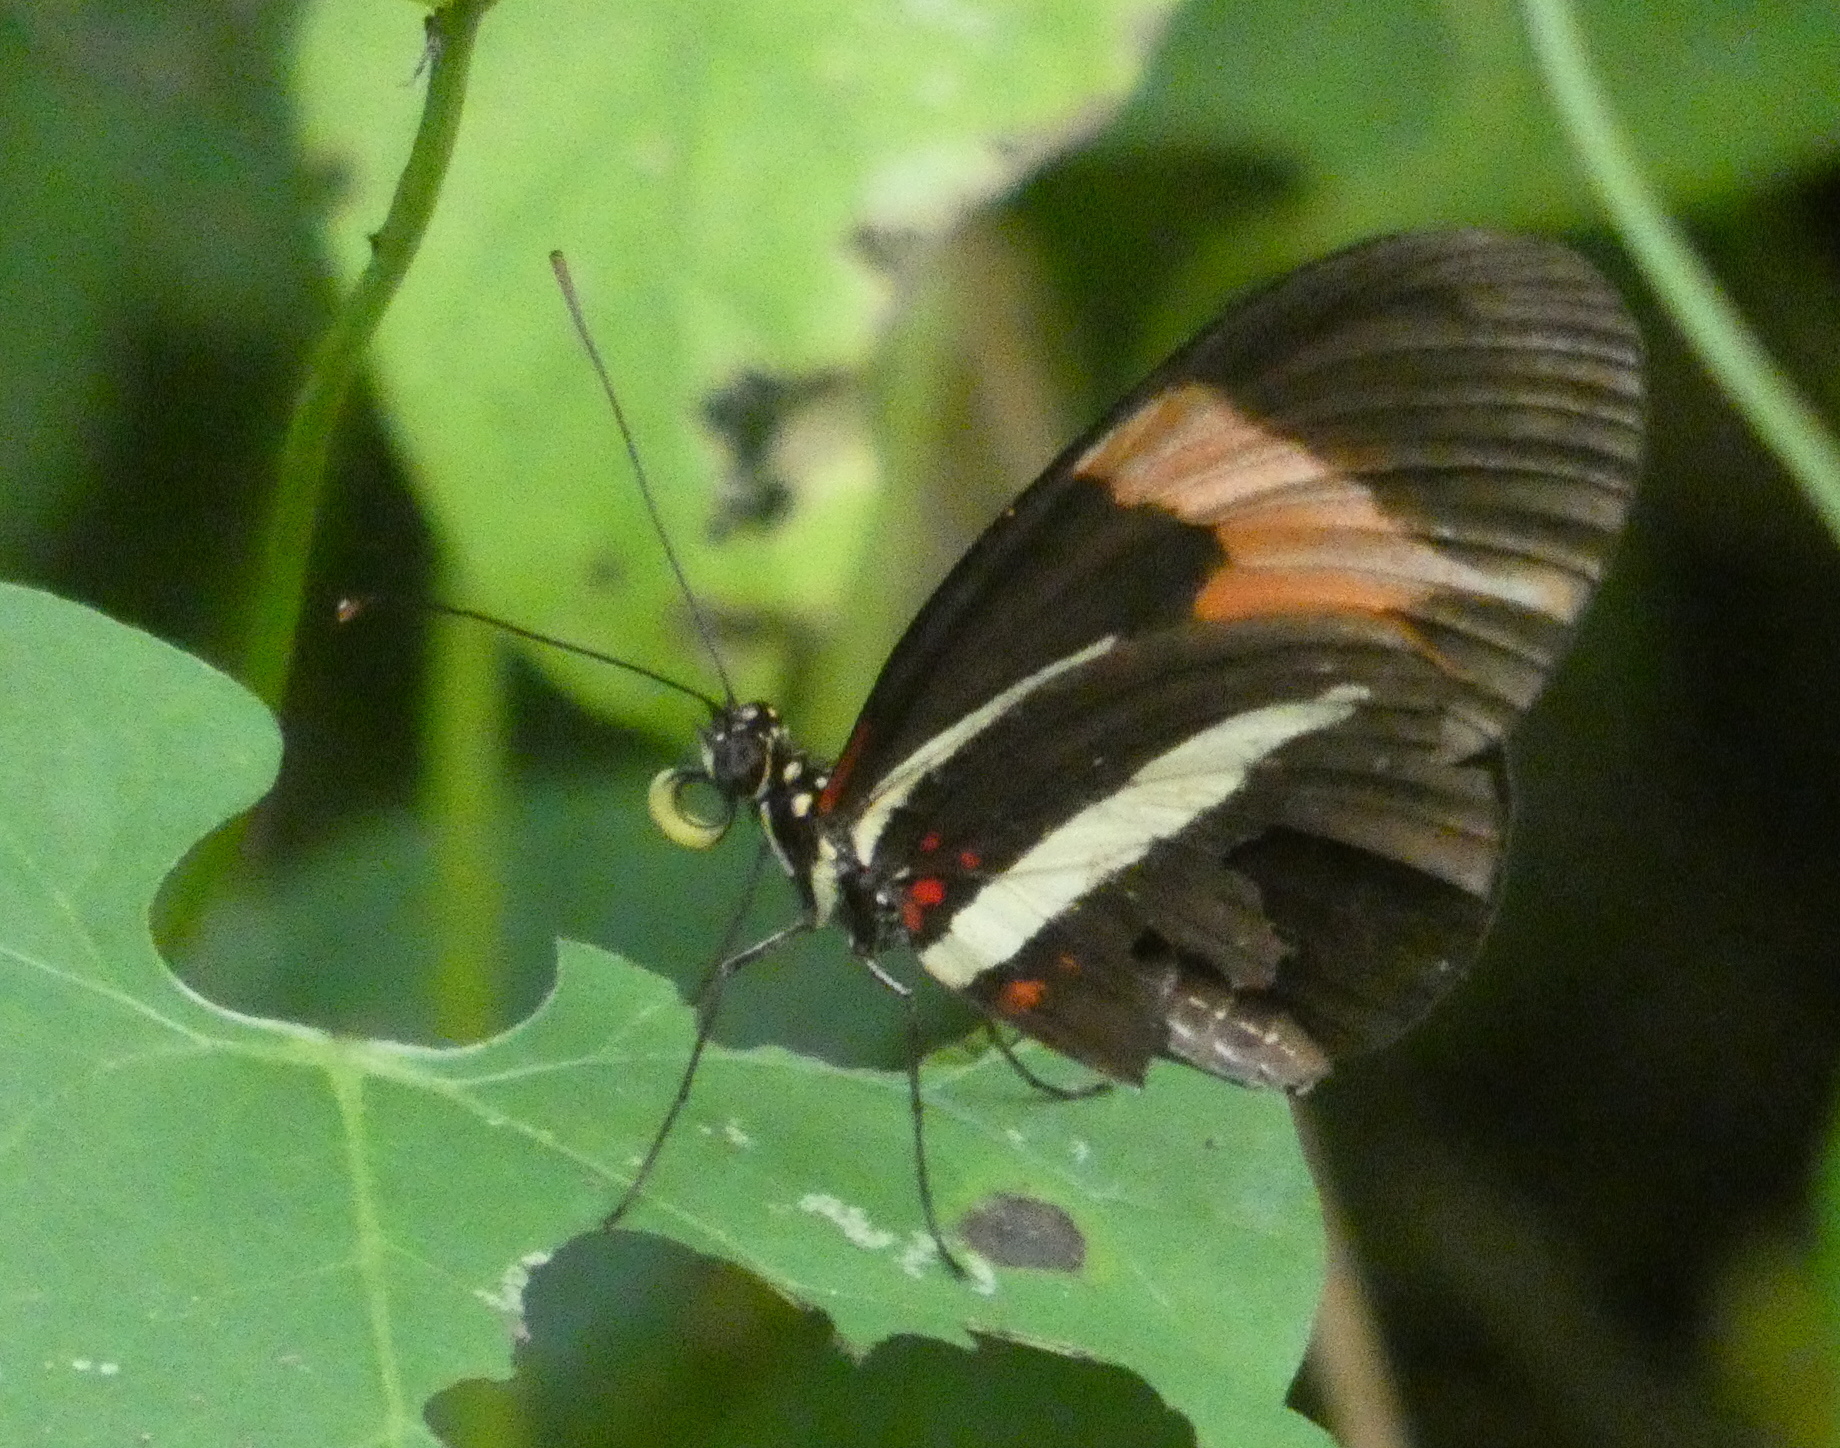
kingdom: Animalia
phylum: Arthropoda
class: Insecta
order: Lepidoptera
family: Nymphalidae
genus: Heliconius
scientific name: Heliconius erato
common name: Common patch longwing
